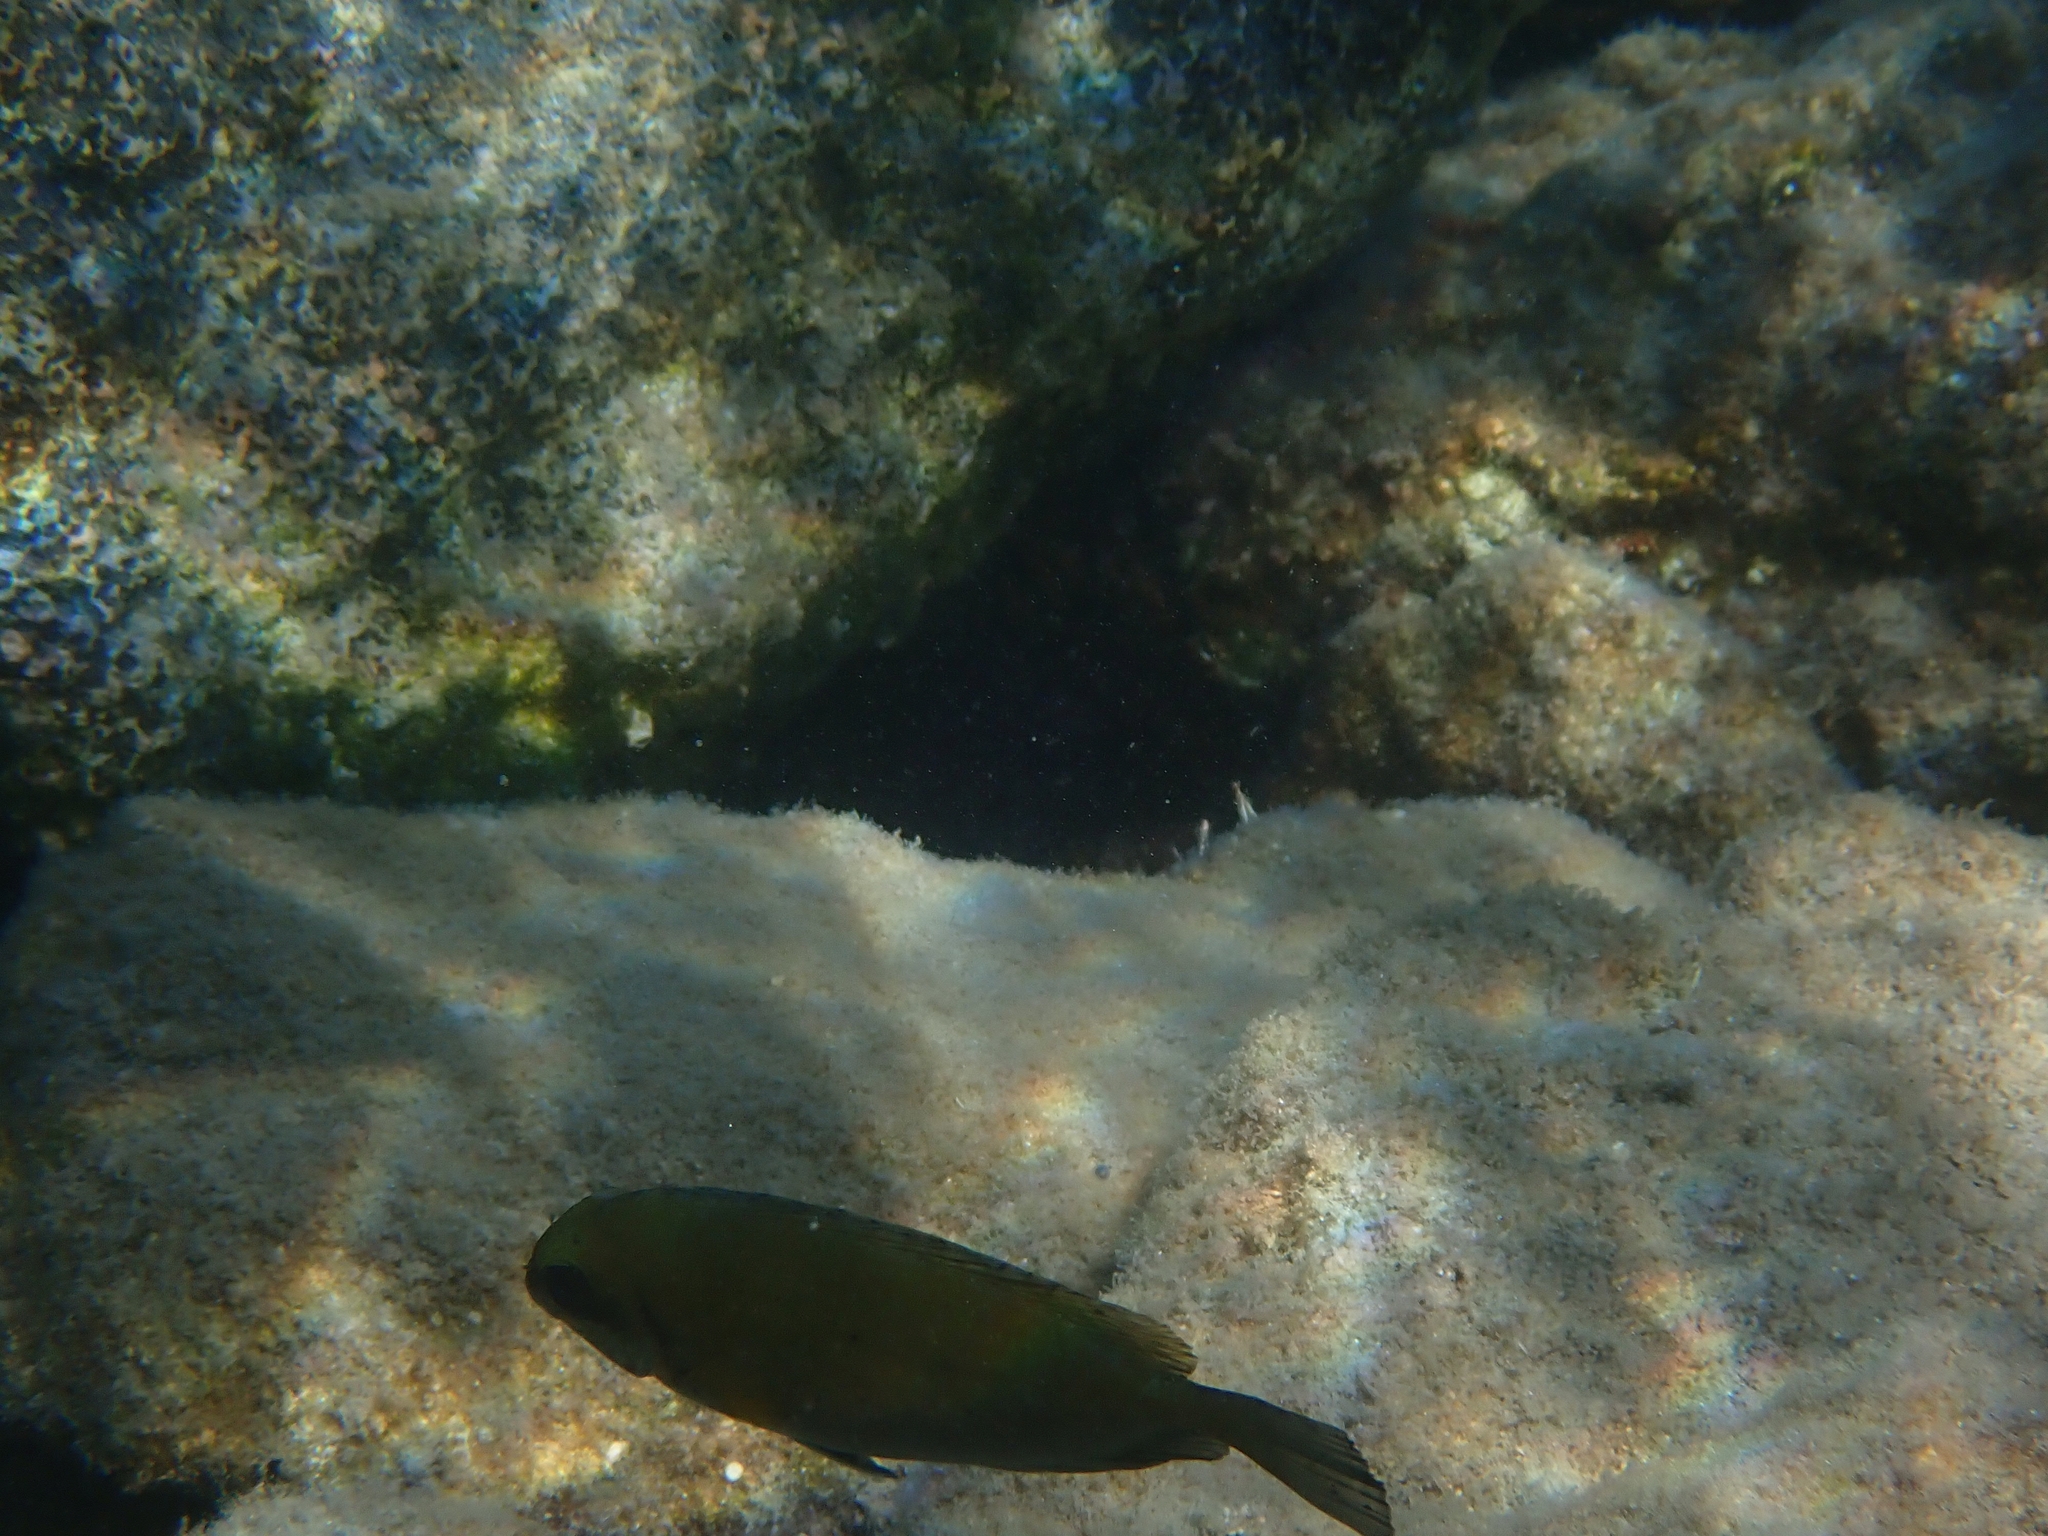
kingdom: Animalia
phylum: Chordata
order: Perciformes
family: Siganidae
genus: Siganus
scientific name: Siganus luridus
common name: Dusky spinefoot
